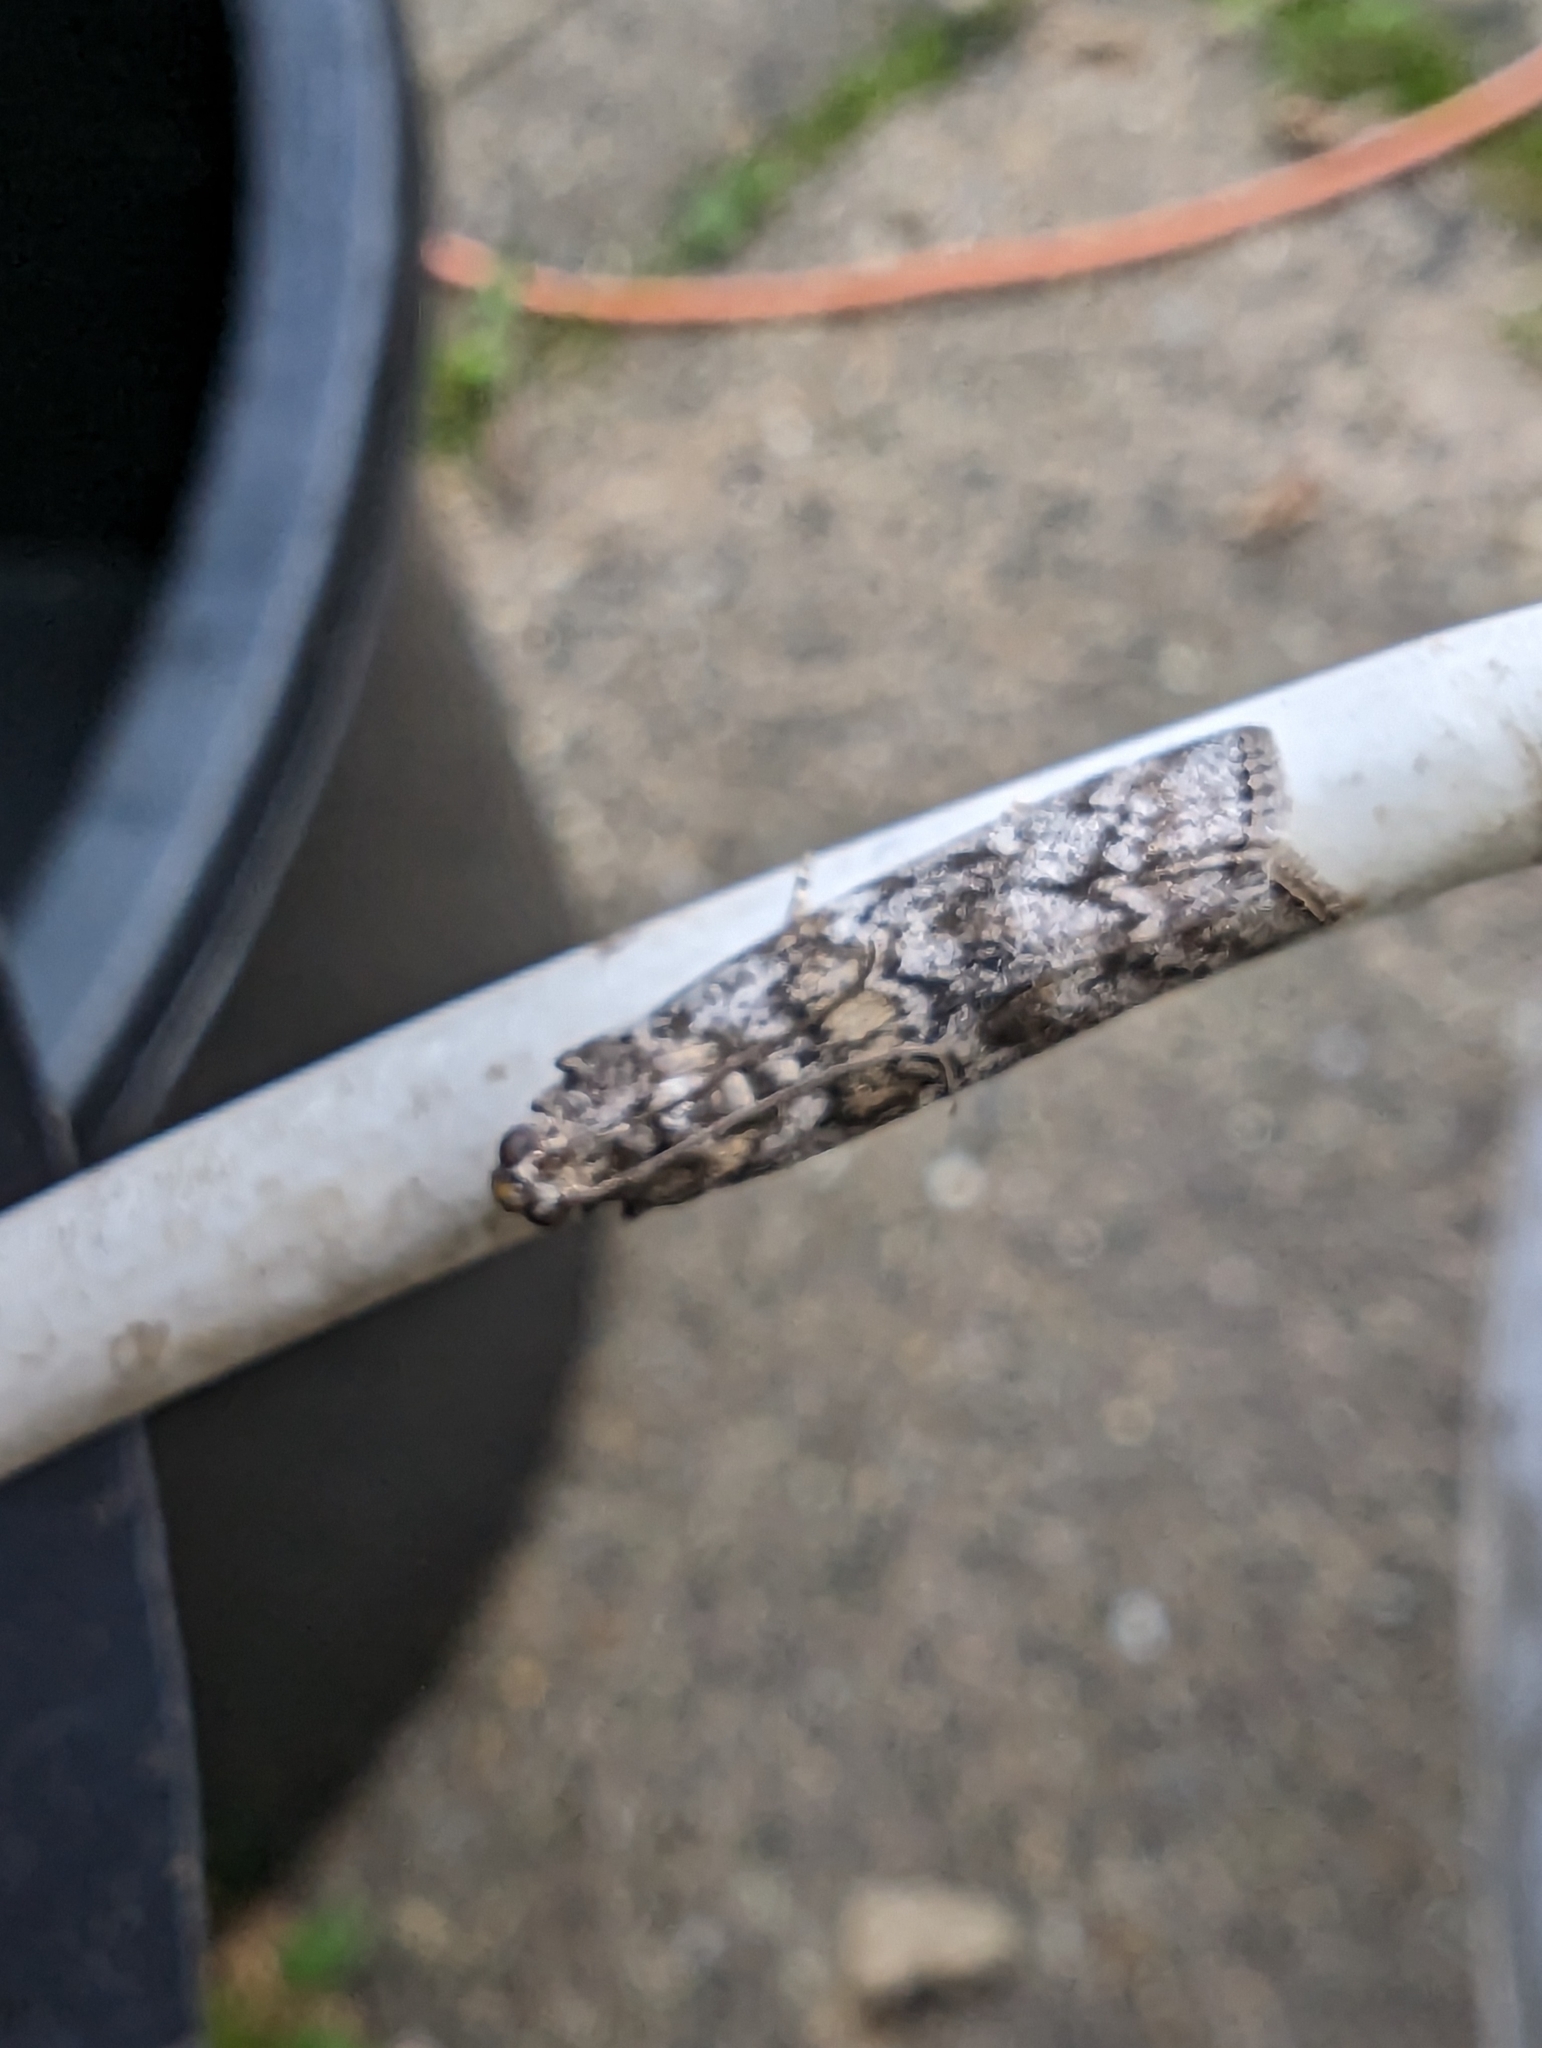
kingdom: Animalia
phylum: Arthropoda
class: Insecta
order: Lepidoptera
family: Pyralidae
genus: Dioryctria
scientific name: Dioryctria abietella
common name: Dark pine knot-horn
